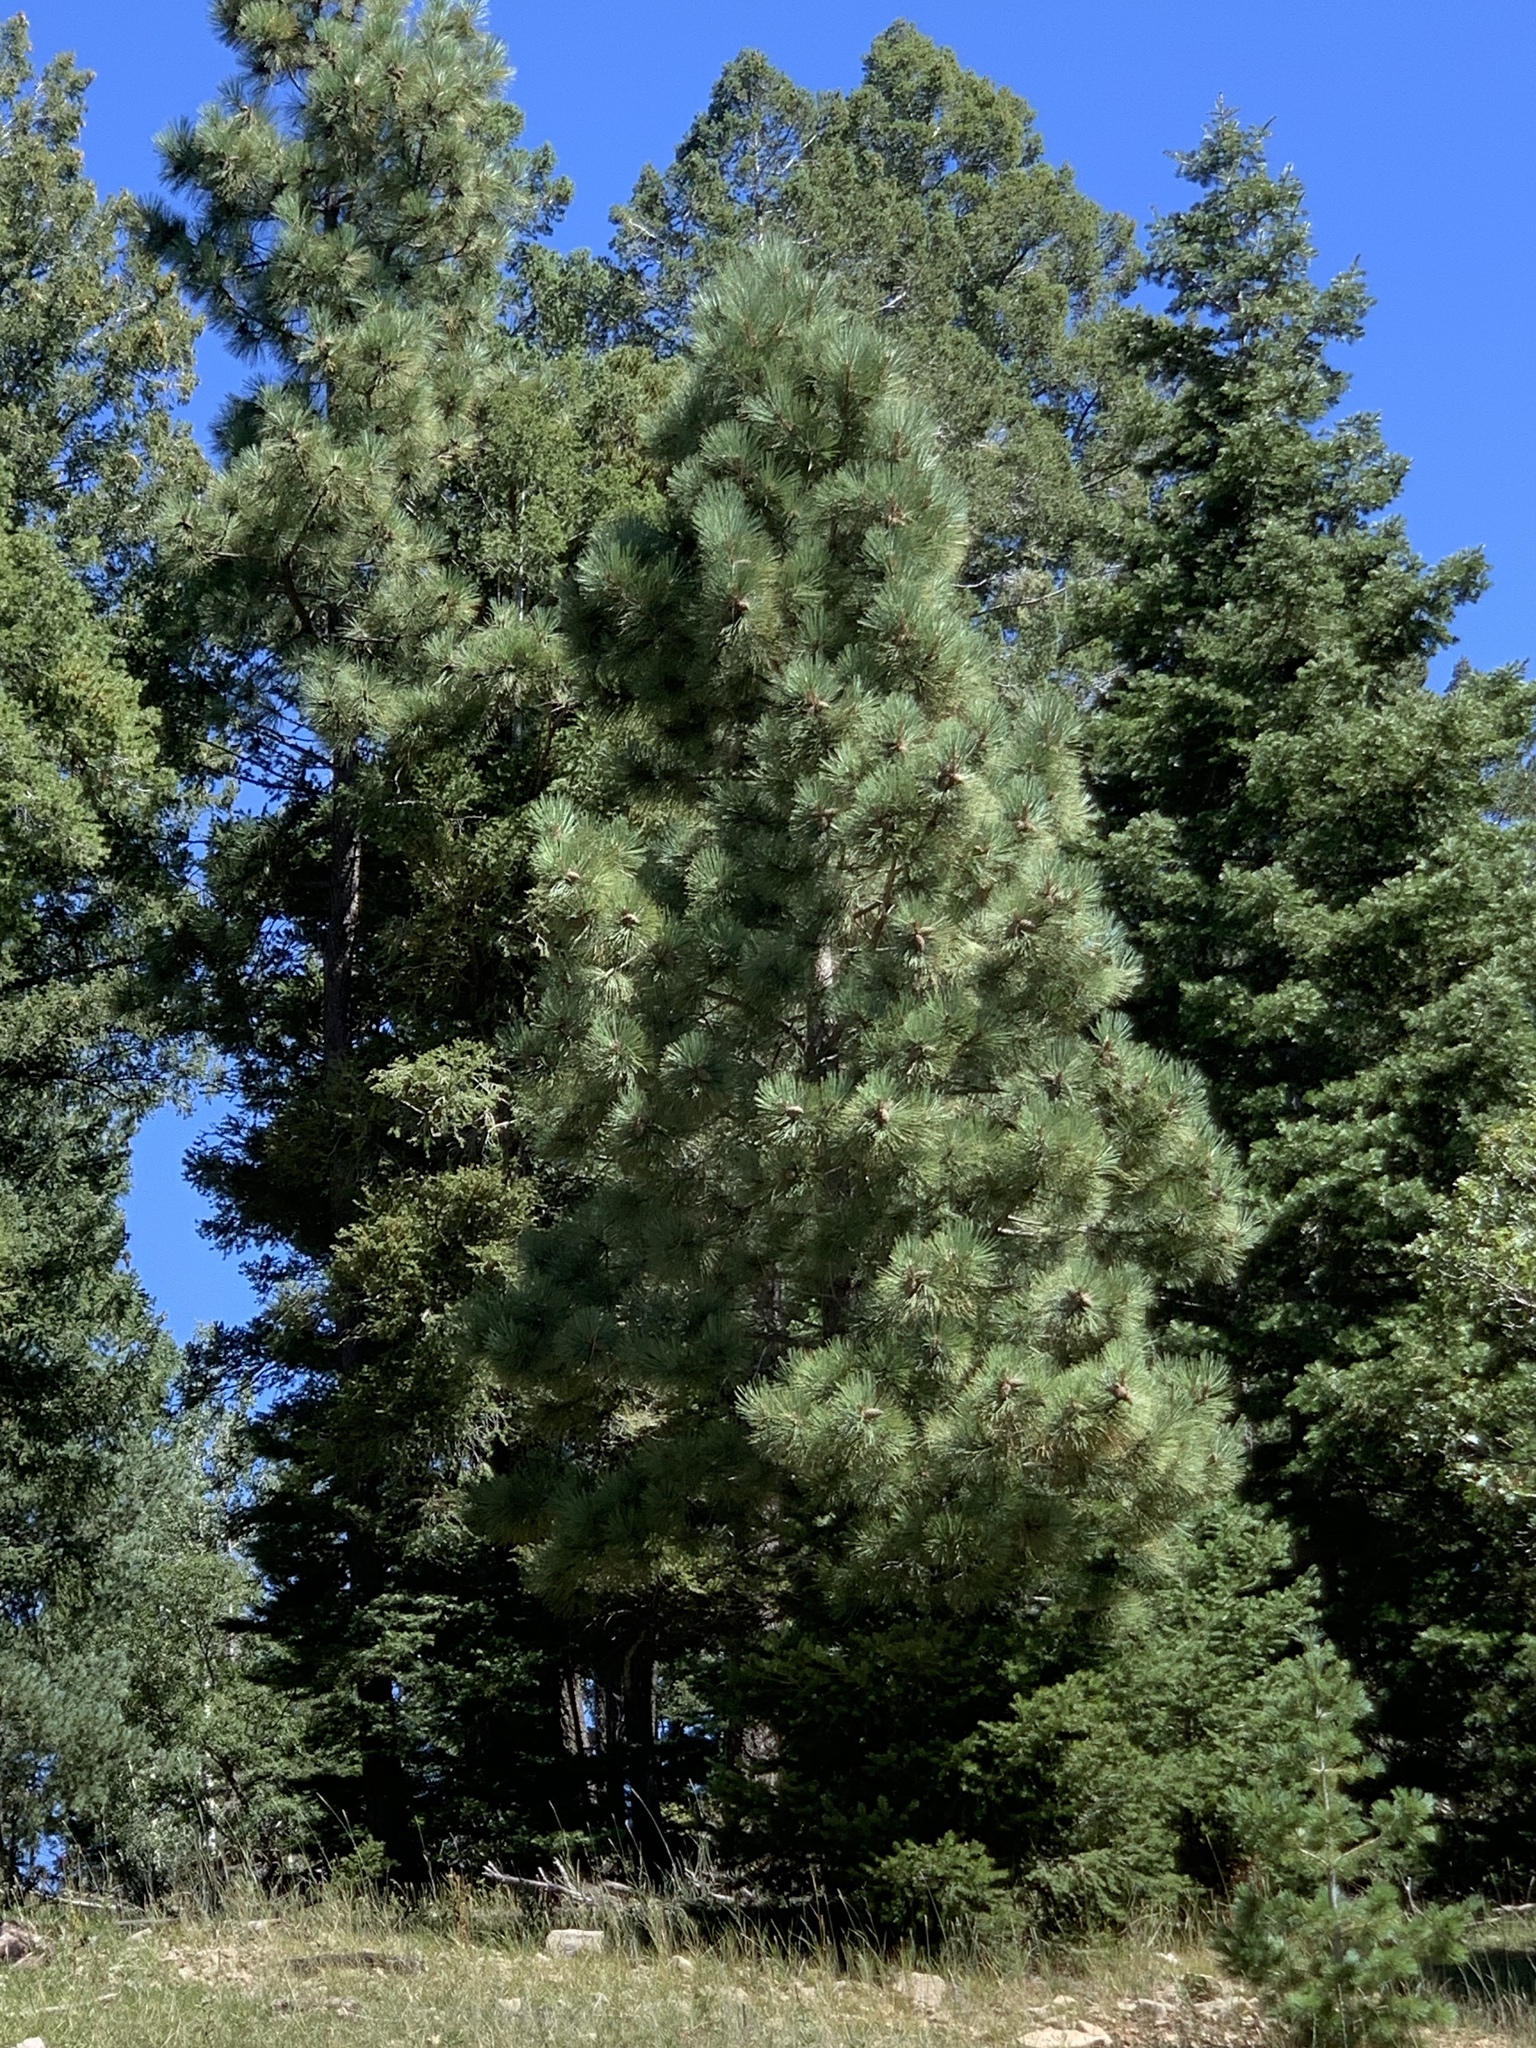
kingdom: Plantae
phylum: Tracheophyta
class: Pinopsida
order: Pinales
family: Pinaceae
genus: Pinus
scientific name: Pinus ponderosa
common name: Western yellow-pine
